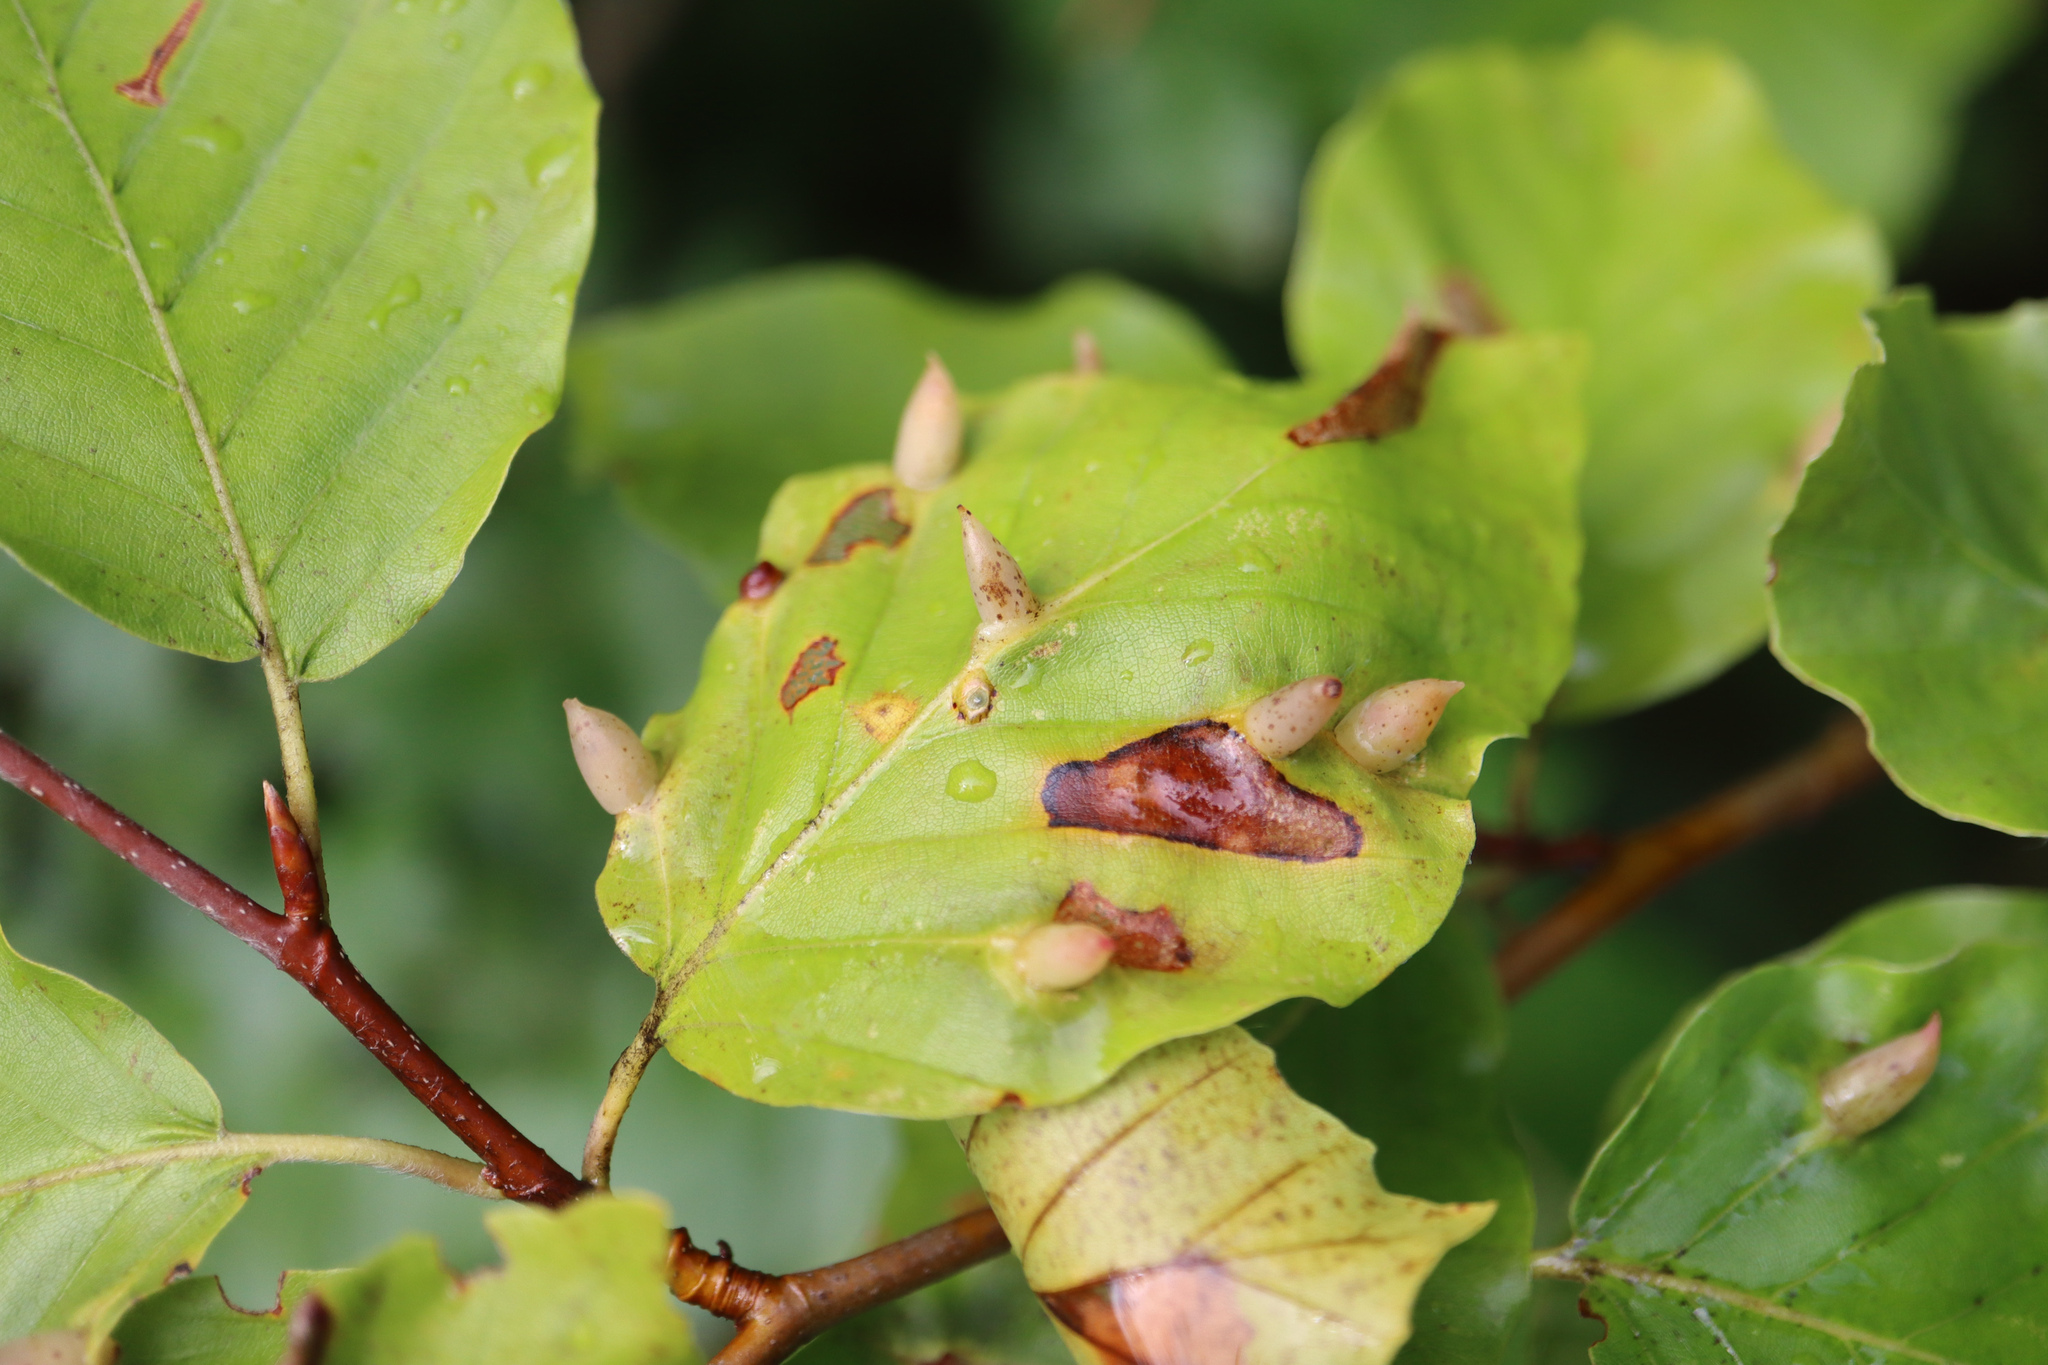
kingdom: Animalia
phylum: Arthropoda
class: Insecta
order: Diptera
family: Cecidomyiidae
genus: Mikiola
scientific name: Mikiola fagi
